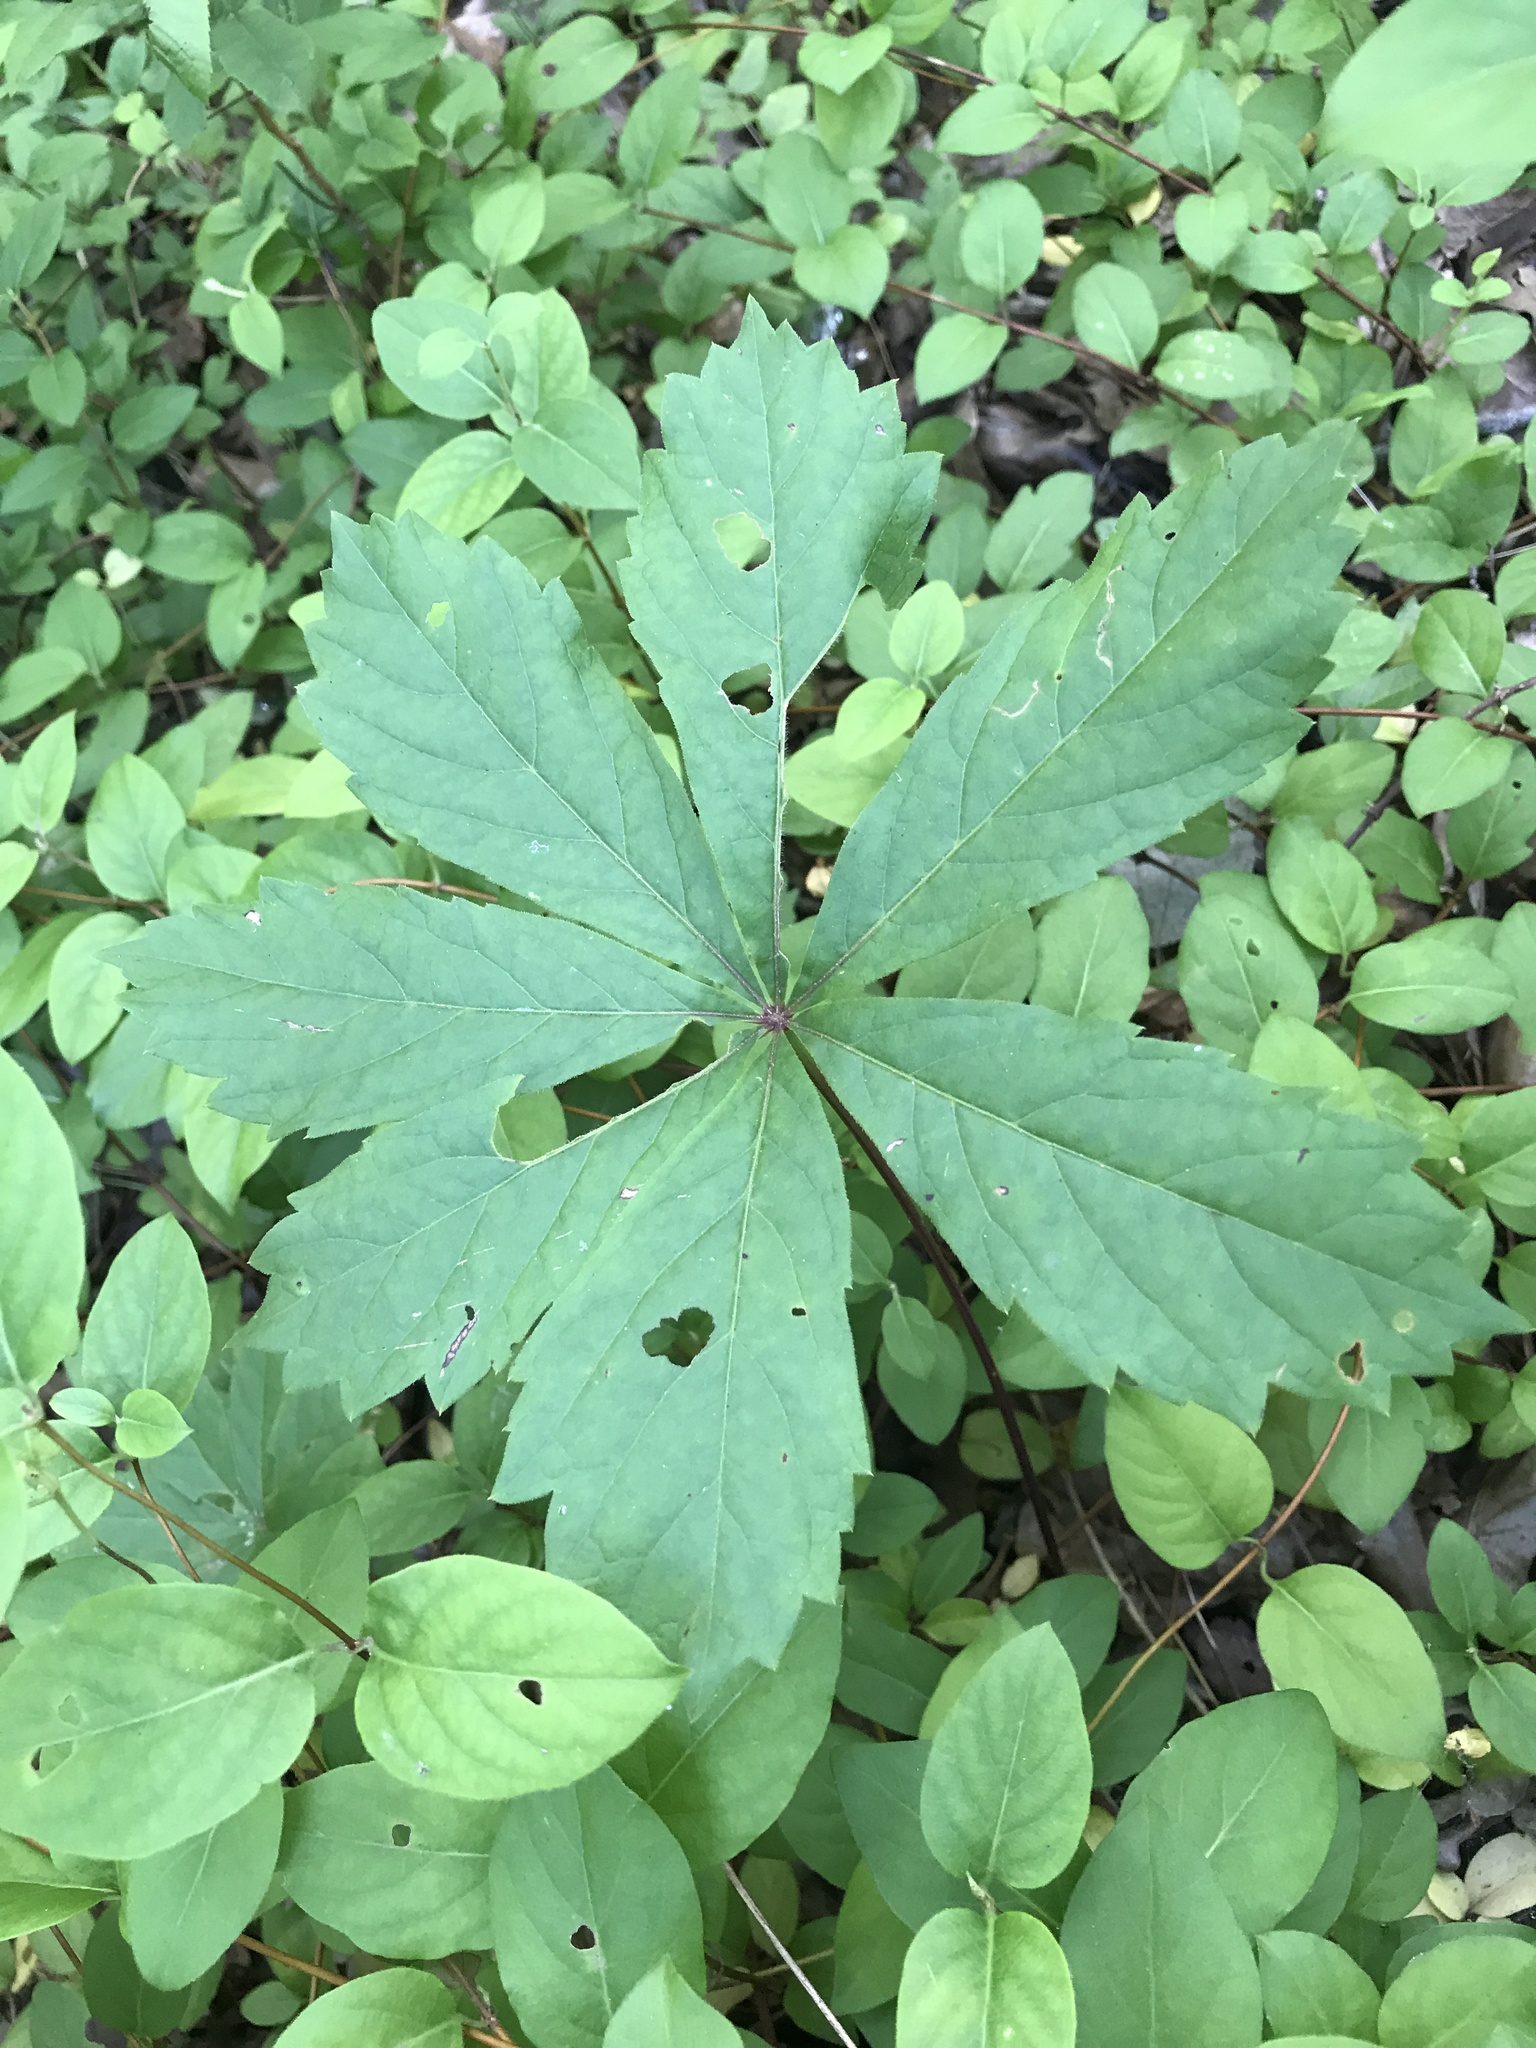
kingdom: Plantae
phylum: Tracheophyta
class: Magnoliopsida
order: Vitales
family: Vitaceae
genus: Parthenocissus
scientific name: Parthenocissus heptaphylla
